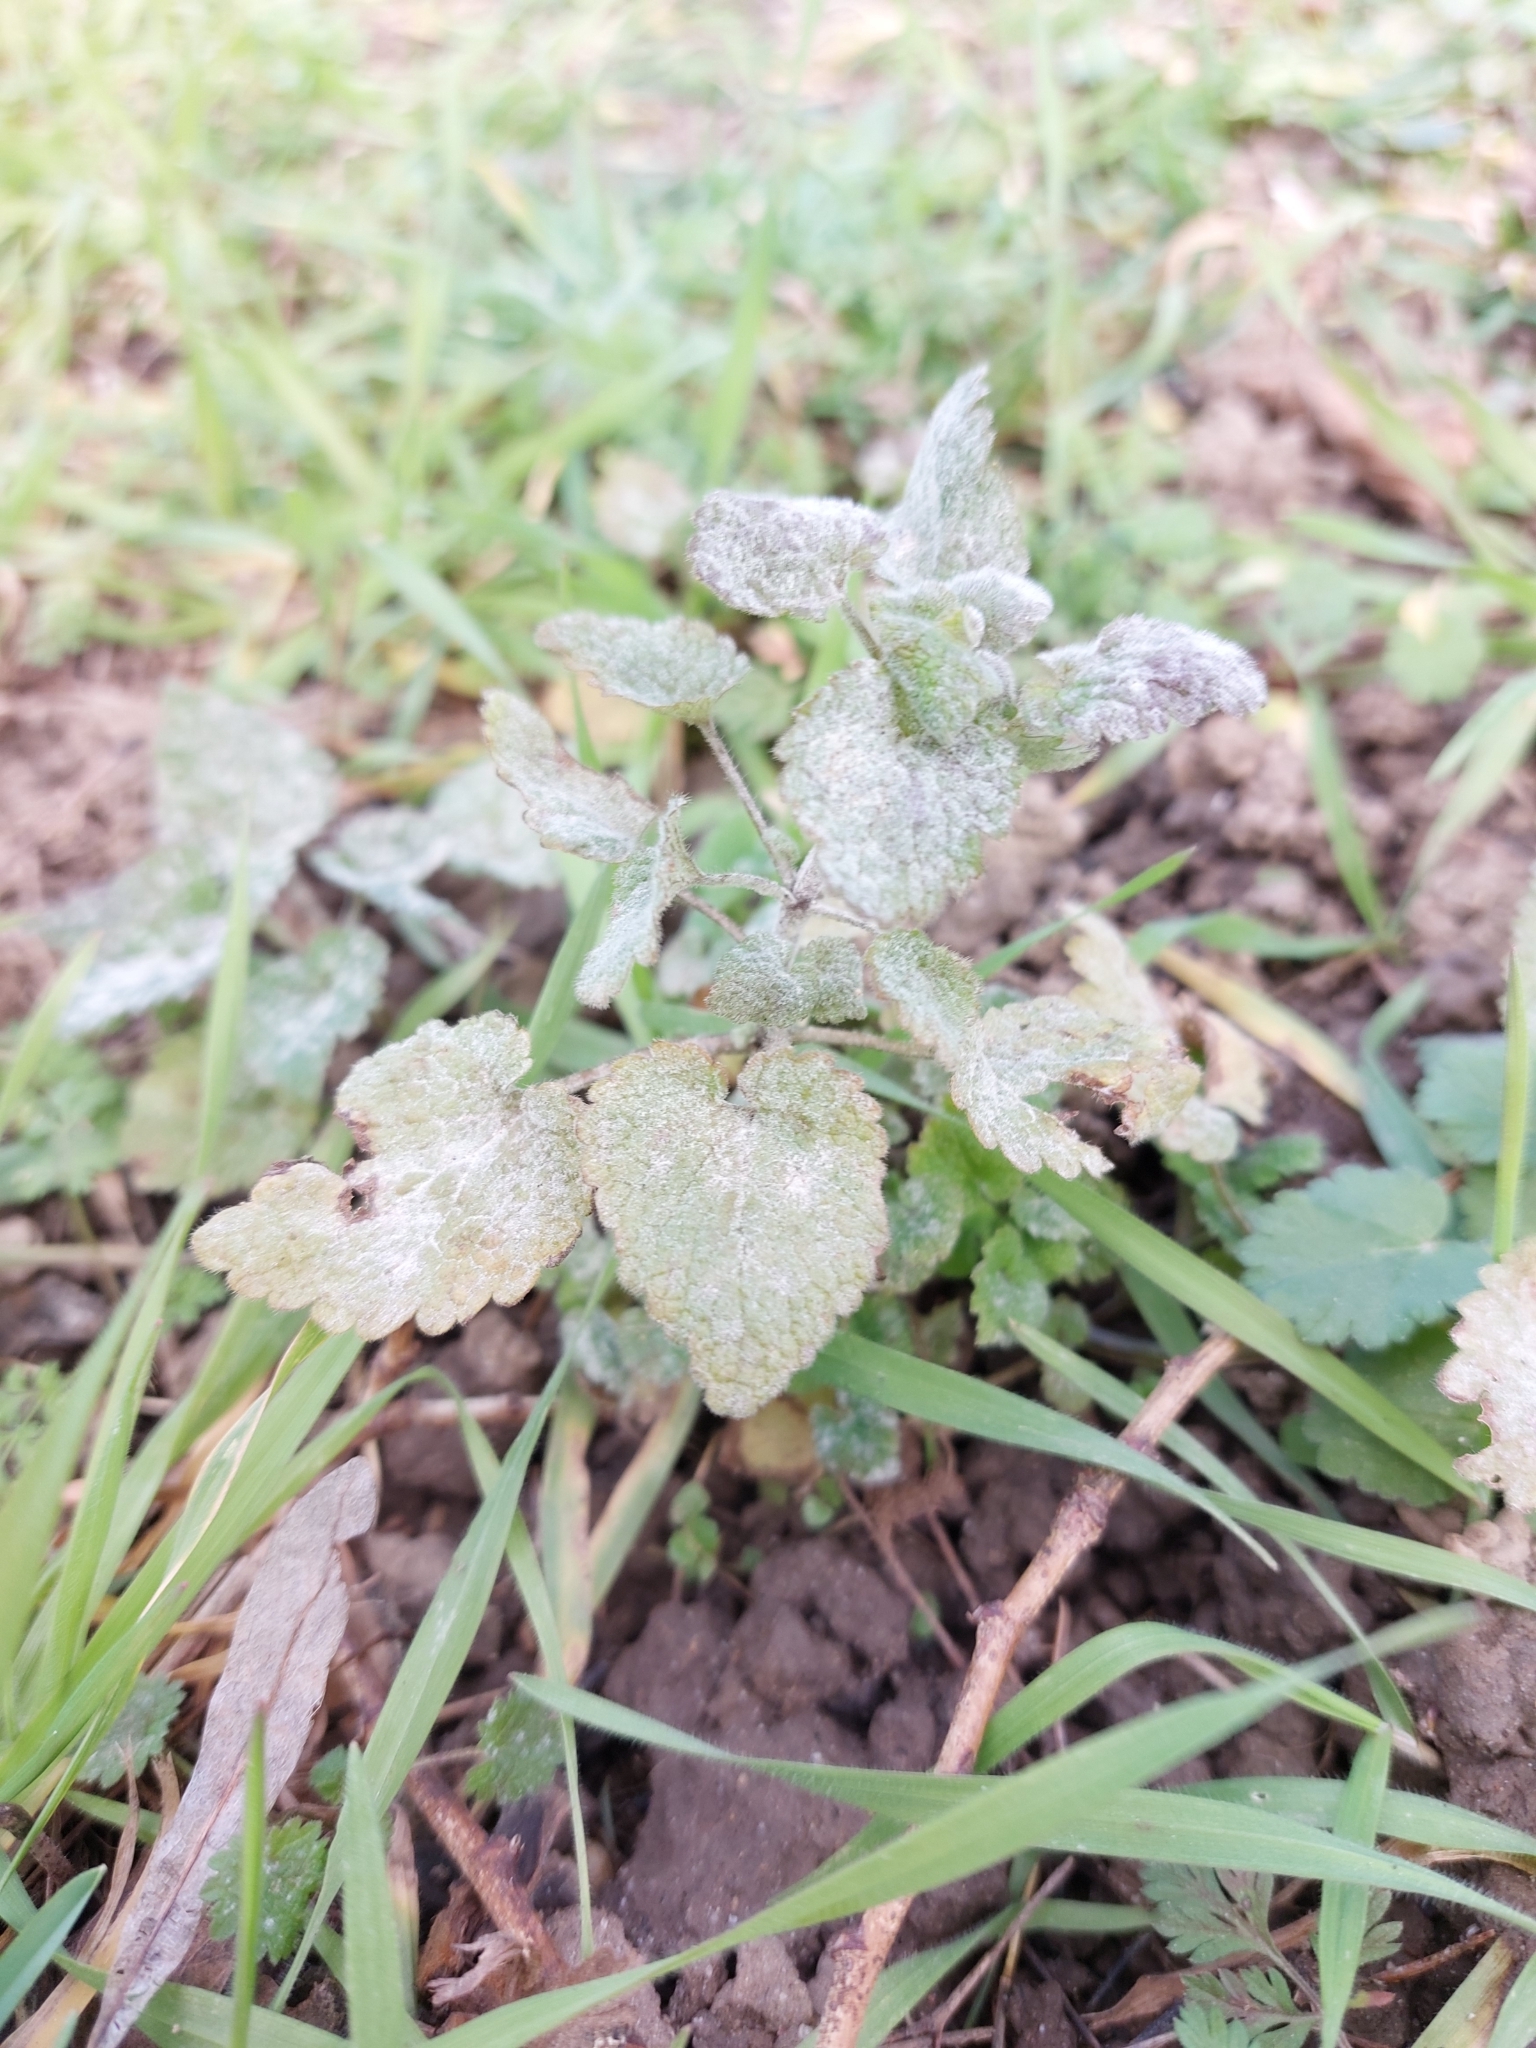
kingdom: Fungi
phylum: Ascomycota
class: Leotiomycetes
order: Helotiales
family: Erysiphaceae
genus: Neoerysiphe
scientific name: Neoerysiphe galeopsidis
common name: Mint mildew
